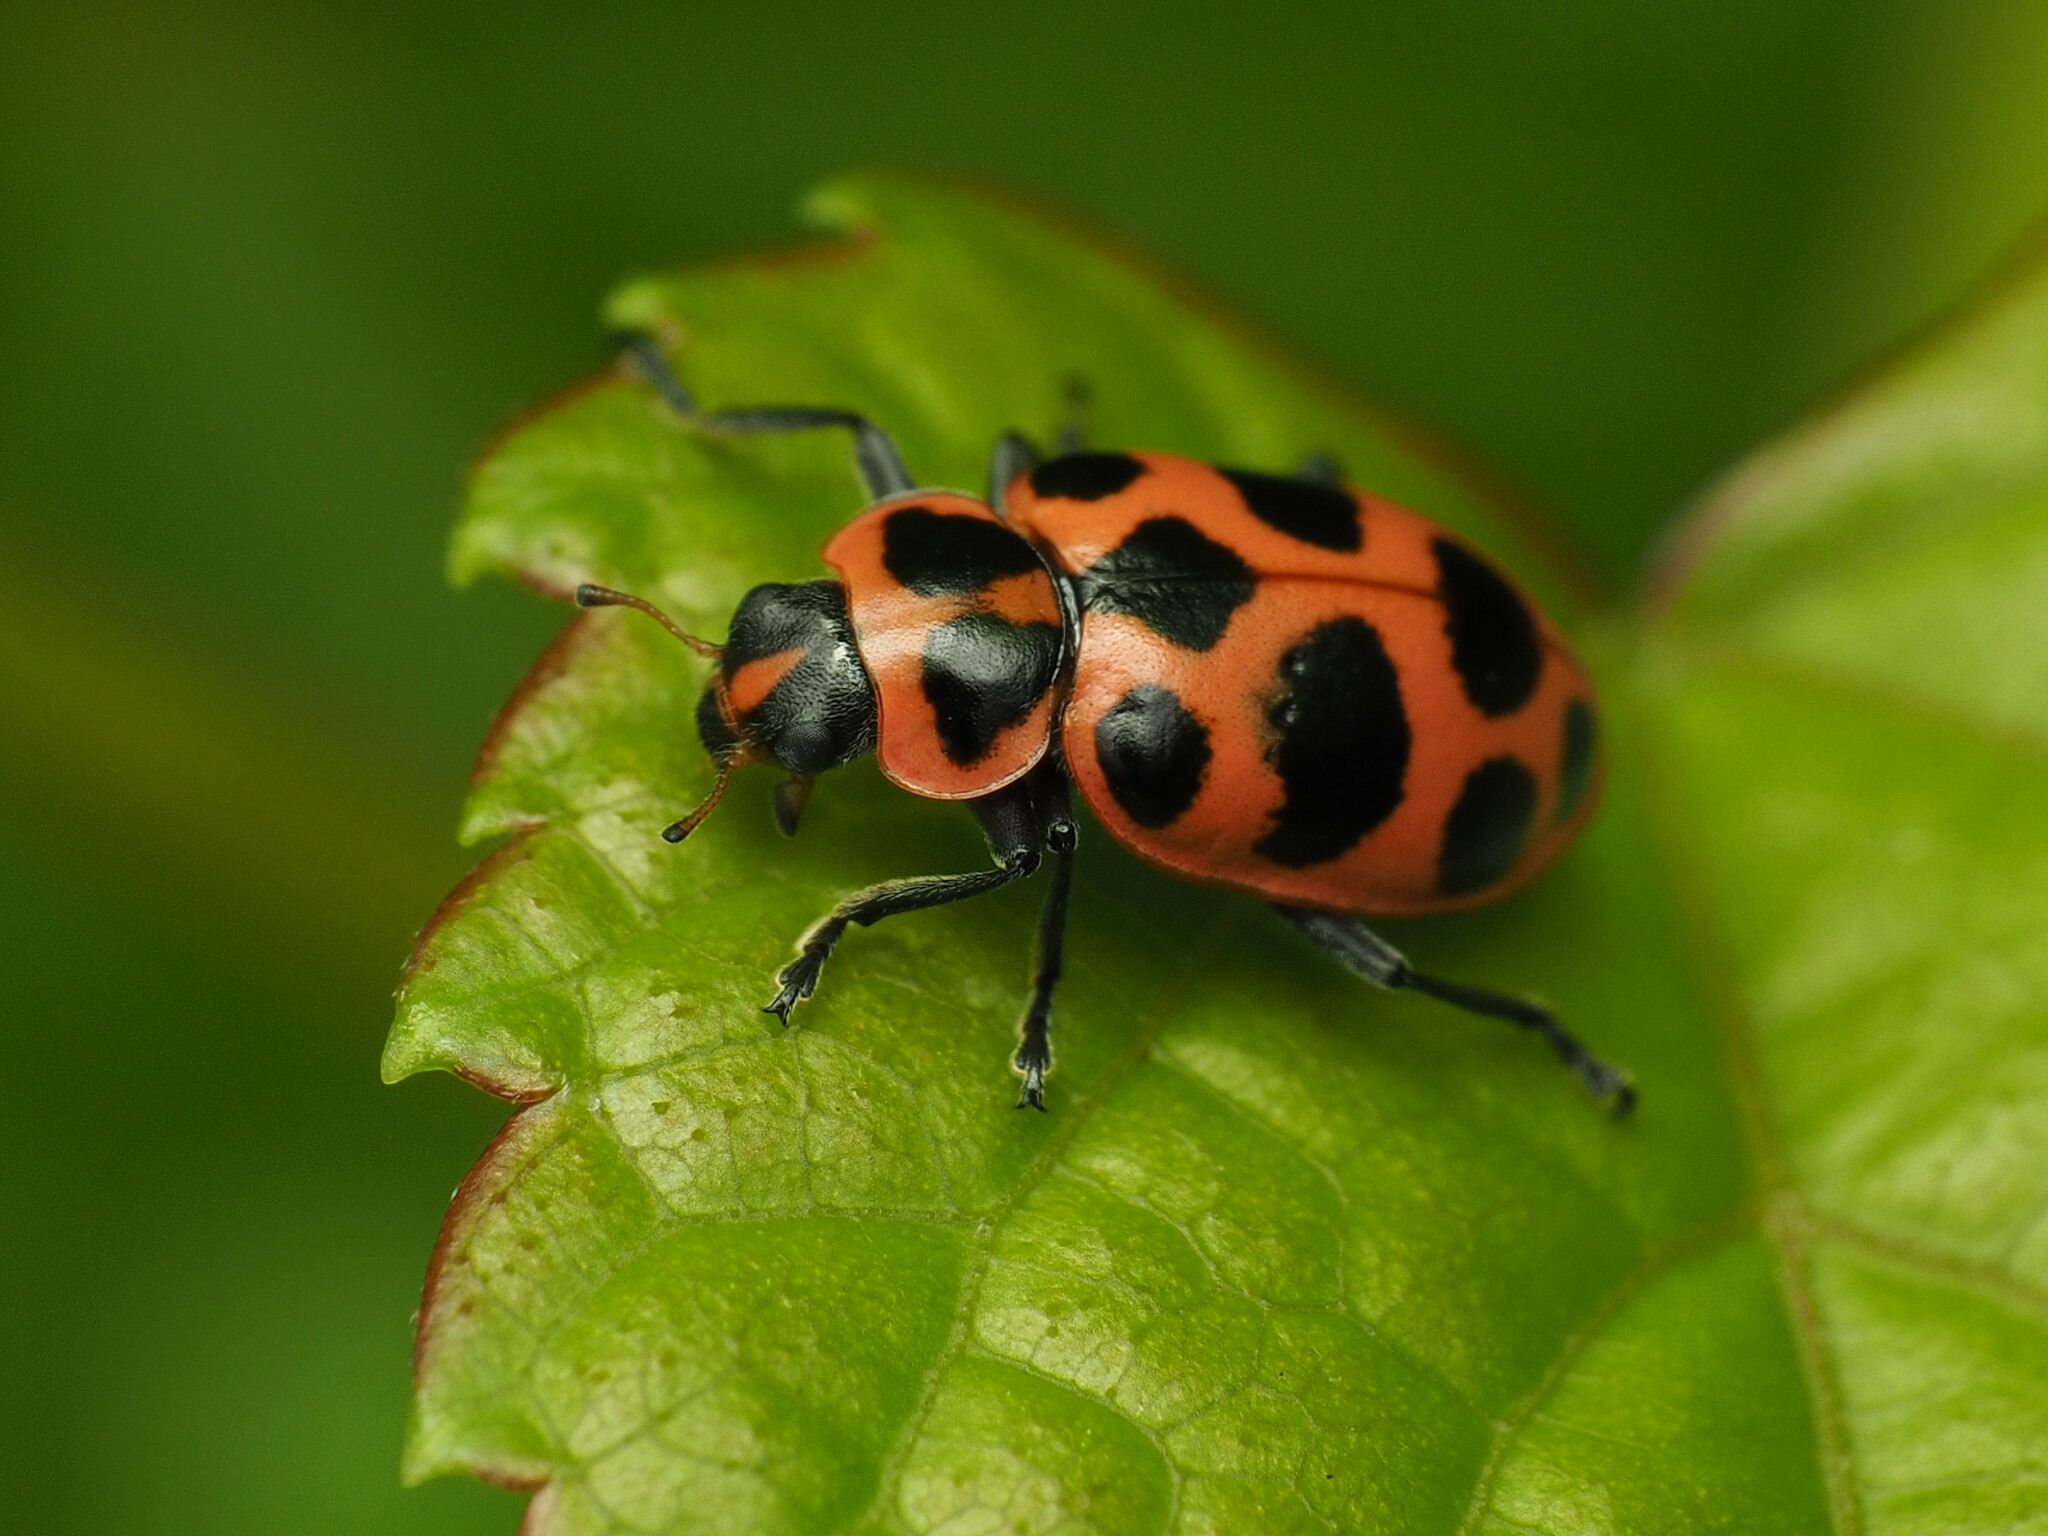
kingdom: Animalia
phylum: Arthropoda
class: Insecta
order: Coleoptera
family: Coccinellidae
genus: Coleomegilla
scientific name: Coleomegilla maculata
